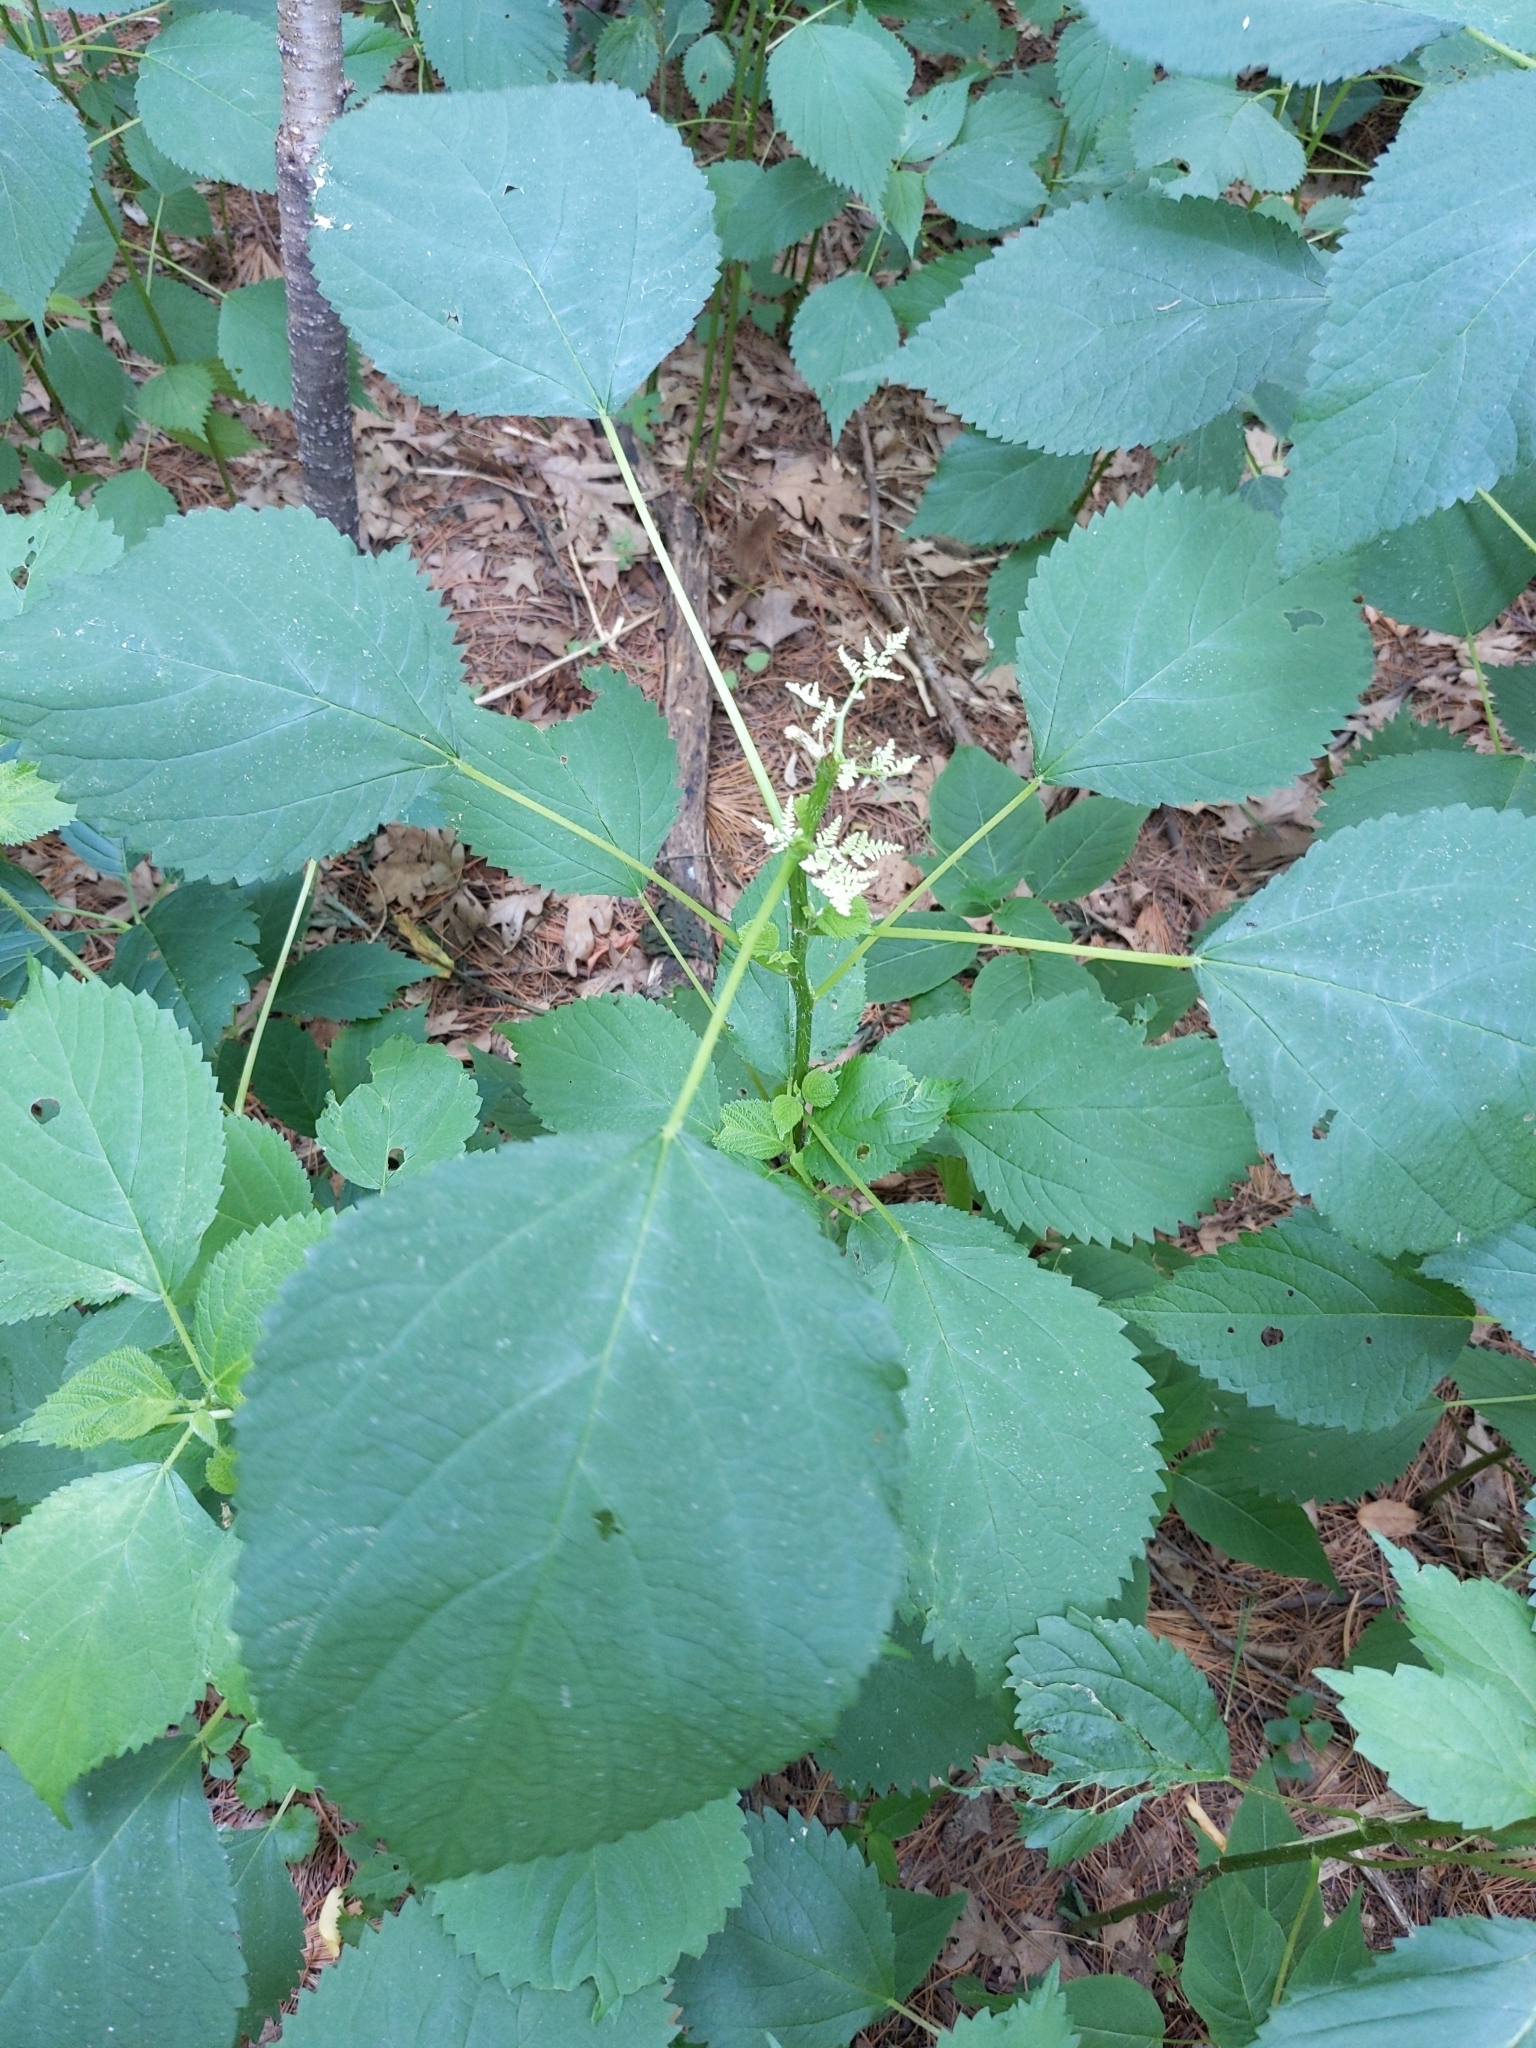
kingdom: Plantae
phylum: Tracheophyta
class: Magnoliopsida
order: Rosales
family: Urticaceae
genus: Laportea
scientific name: Laportea canadensis
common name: Canada nettle
